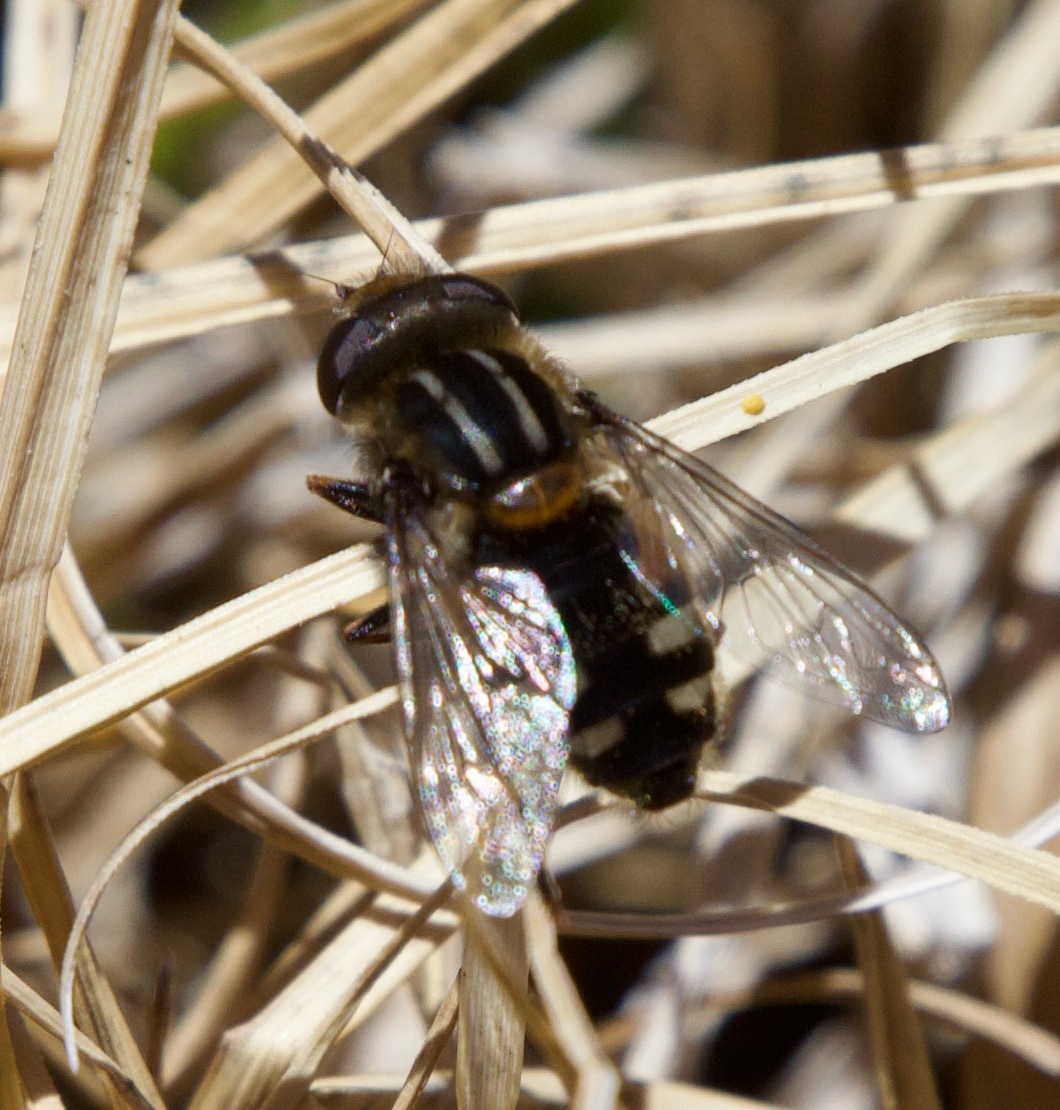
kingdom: Animalia
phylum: Arthropoda
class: Insecta
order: Diptera
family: Syrphidae
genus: Dolichogyna
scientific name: Dolichogyna nigripes
